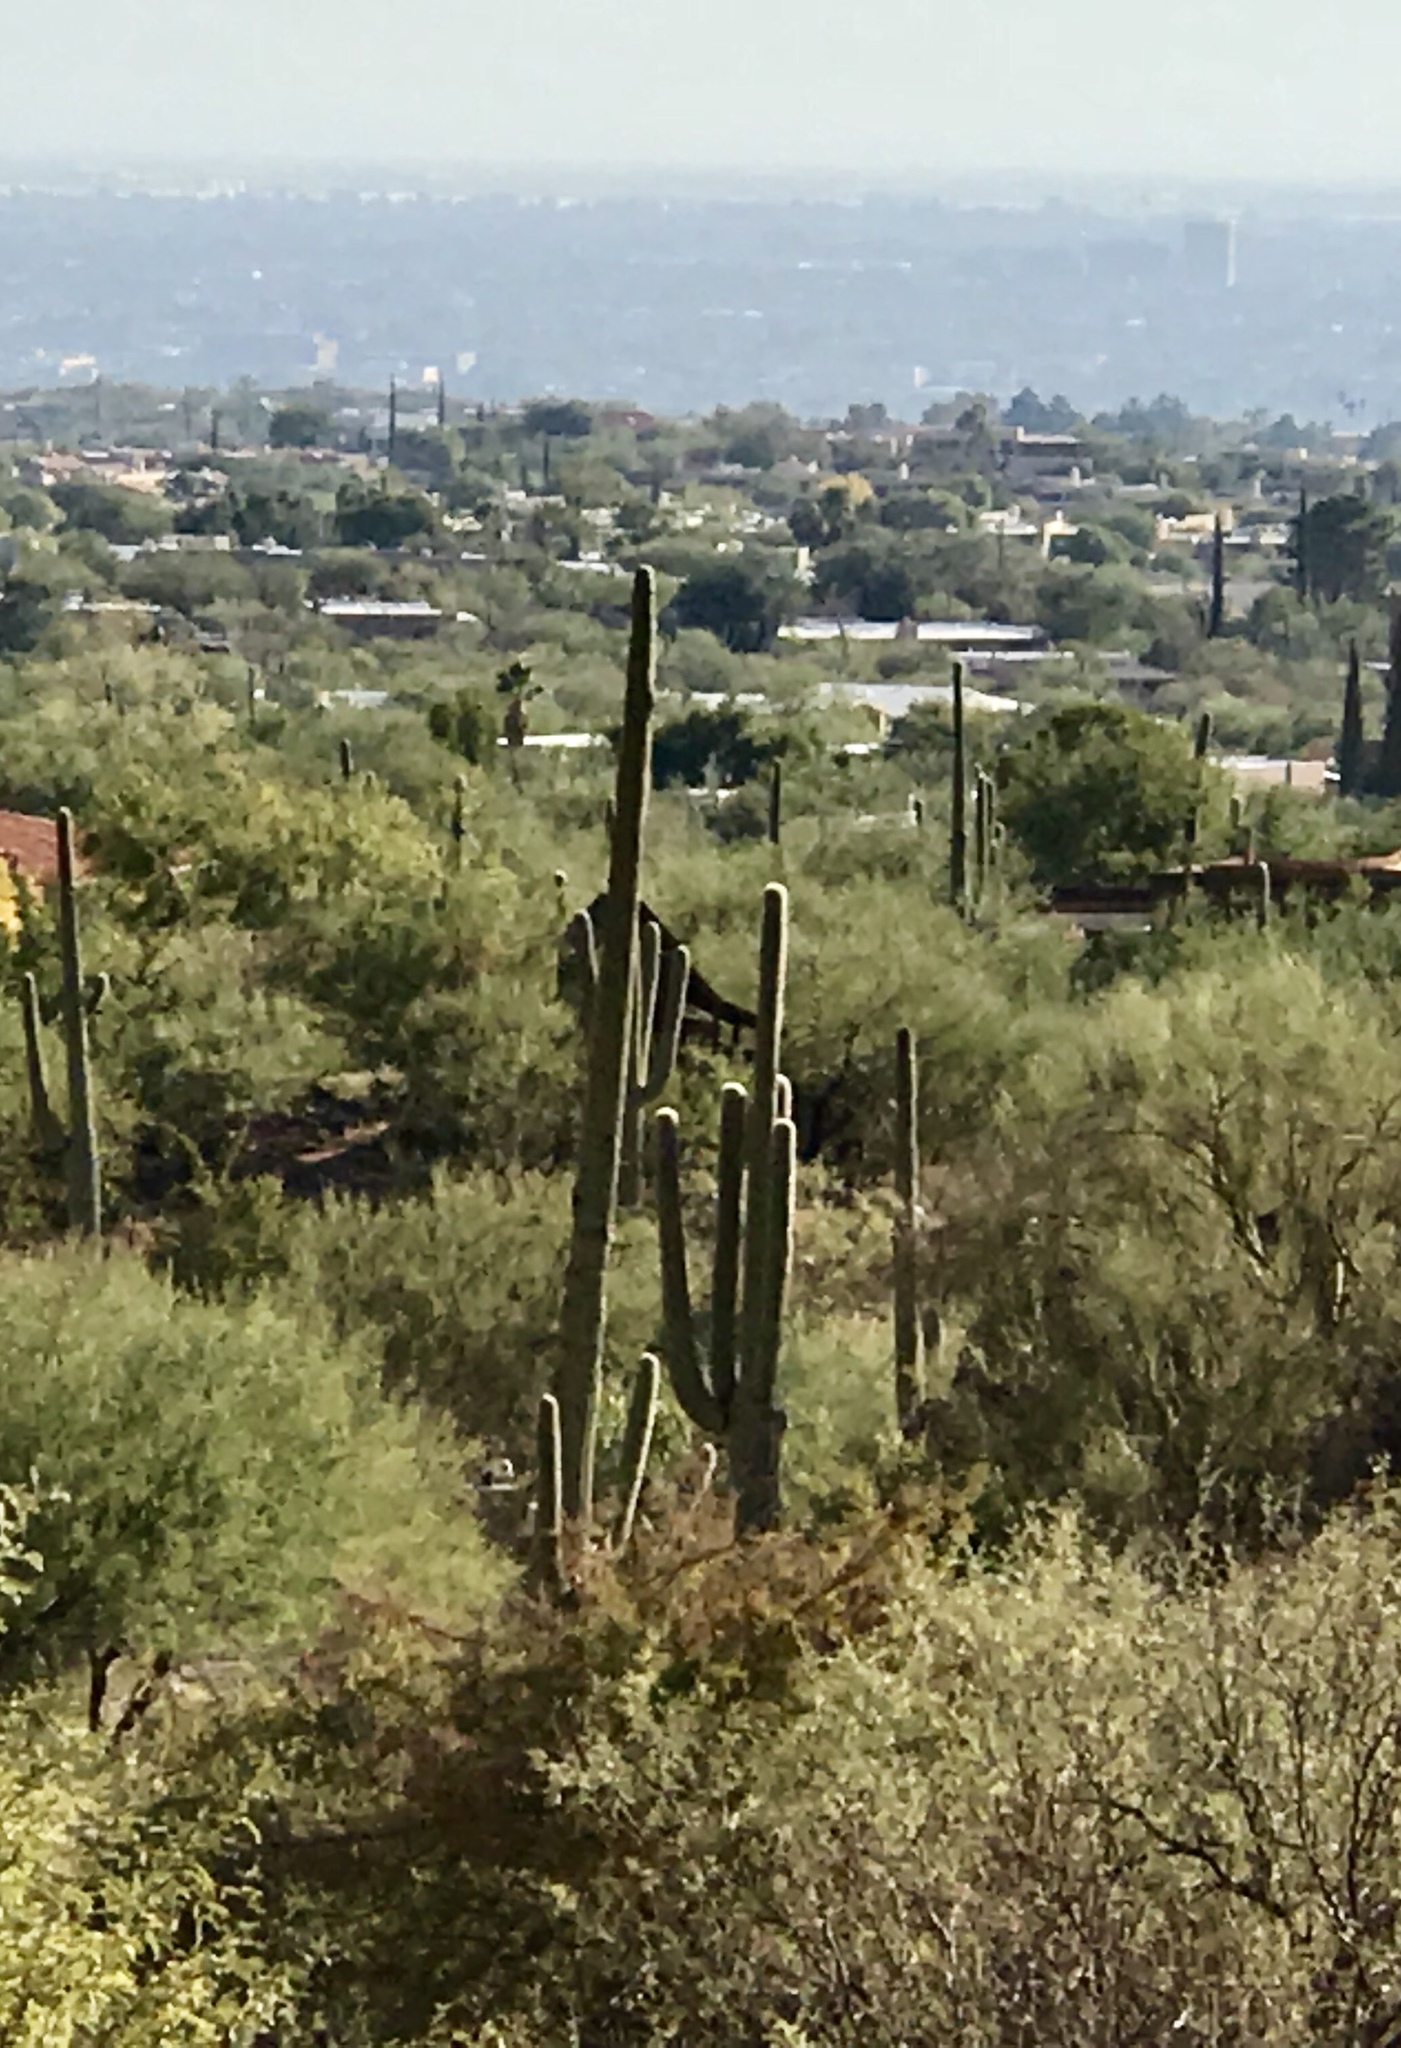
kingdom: Plantae
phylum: Tracheophyta
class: Magnoliopsida
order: Caryophyllales
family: Cactaceae
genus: Carnegiea
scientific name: Carnegiea gigantea
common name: Saguaro
